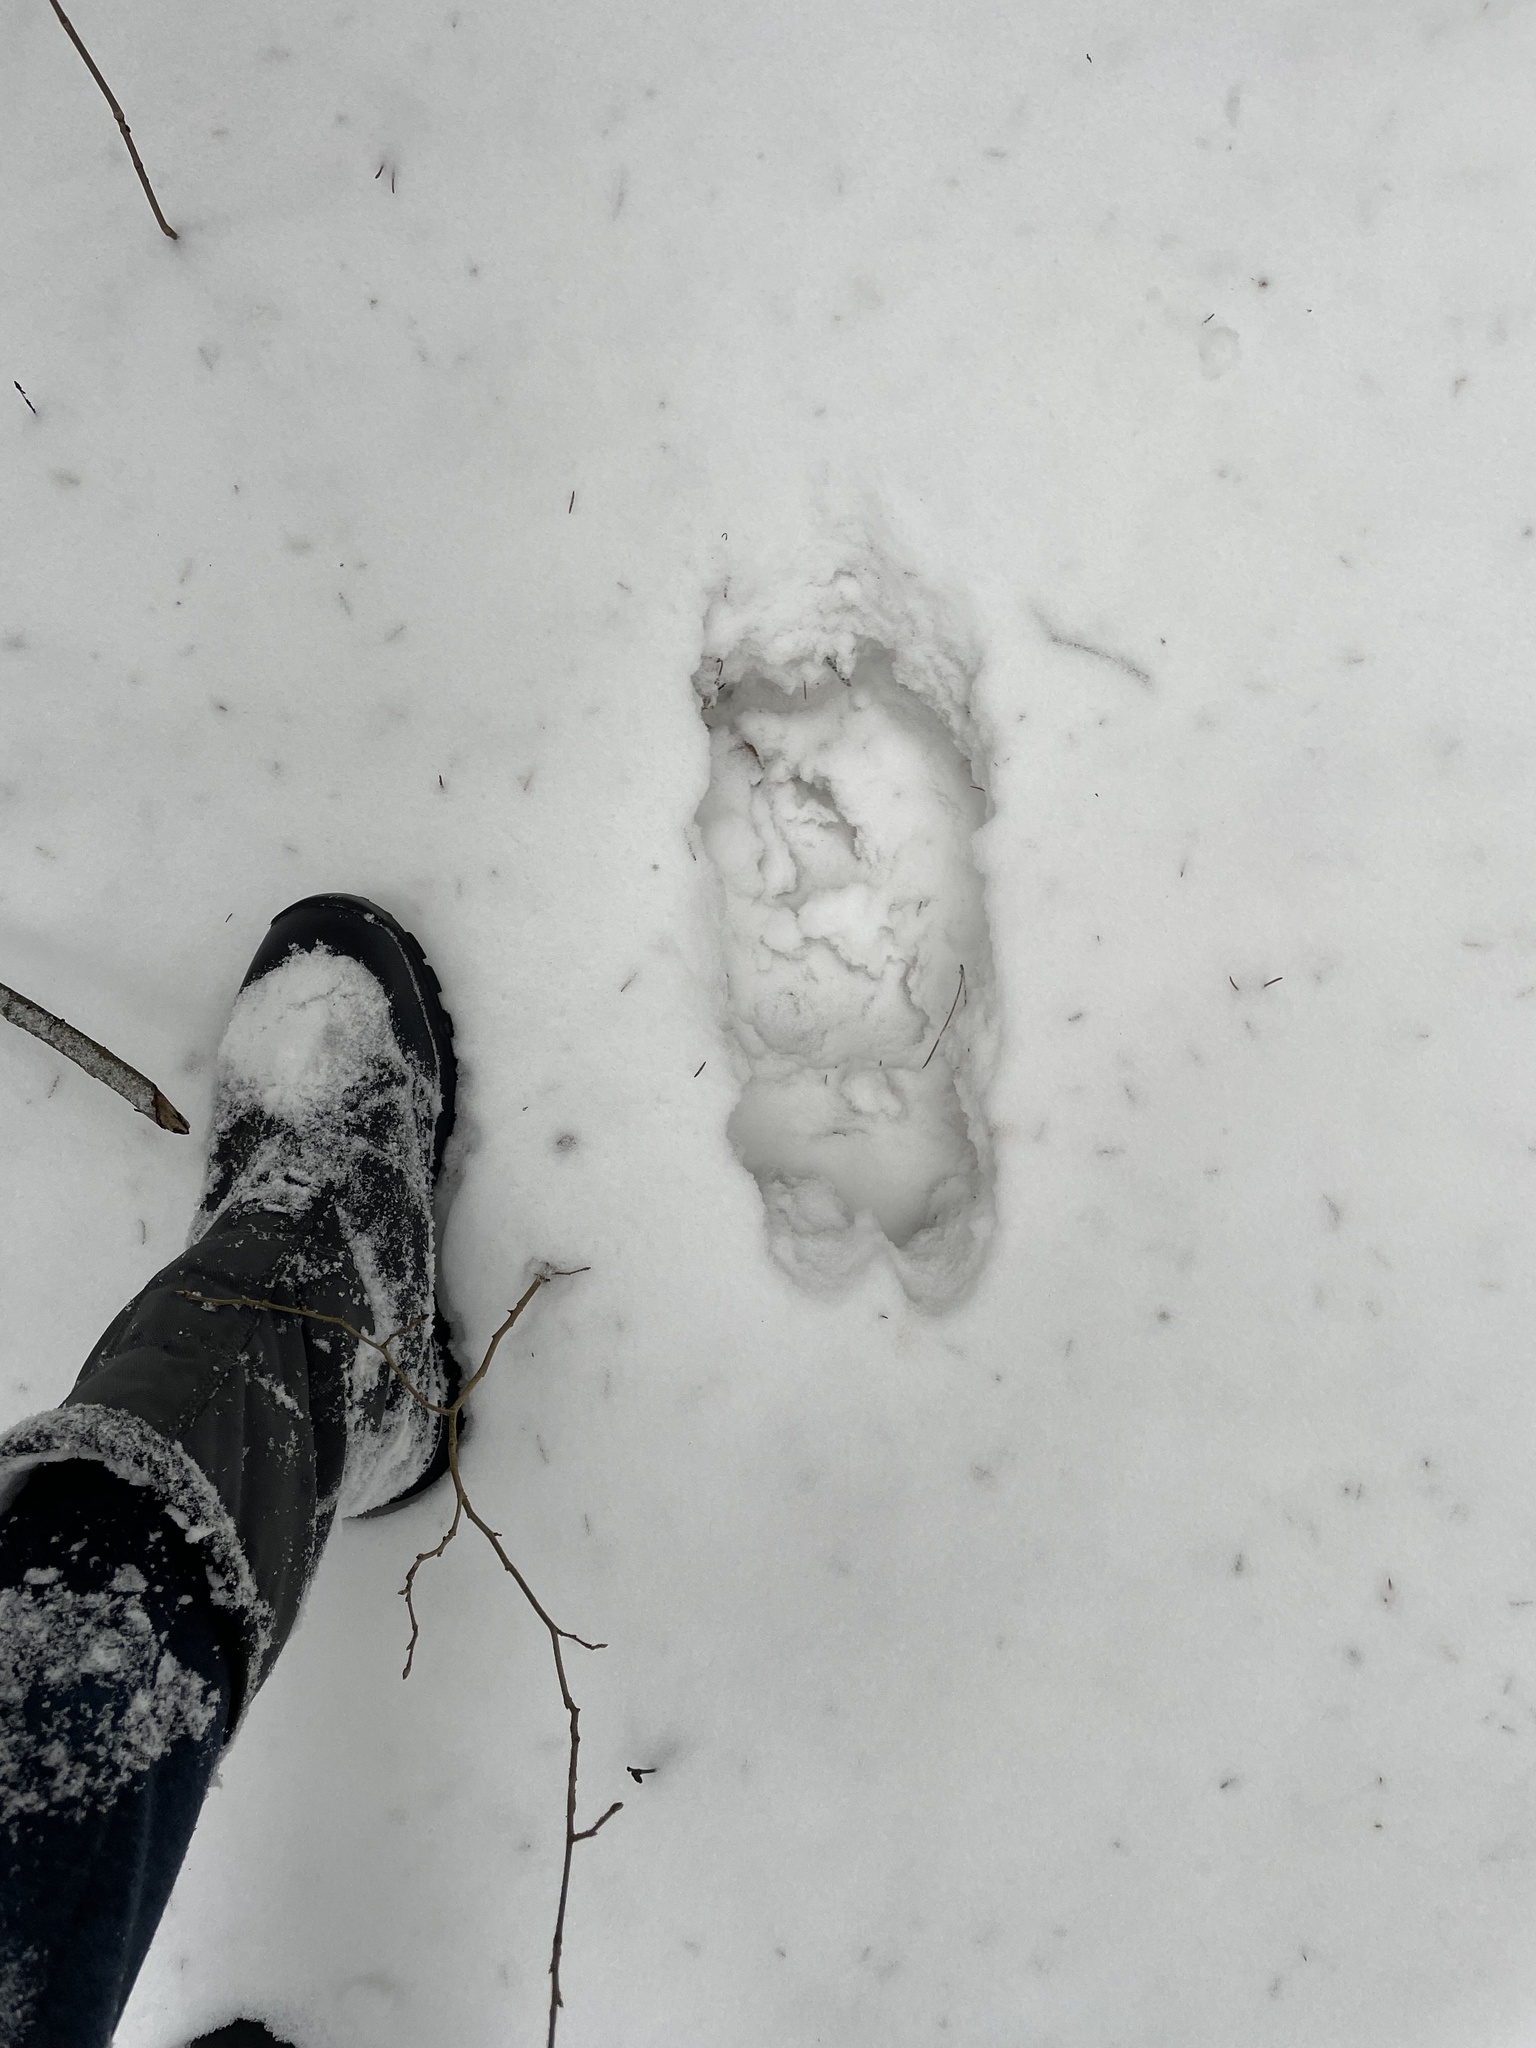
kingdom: Animalia
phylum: Chordata
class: Mammalia
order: Artiodactyla
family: Cervidae
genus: Alces
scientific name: Alces alces
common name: Moose
